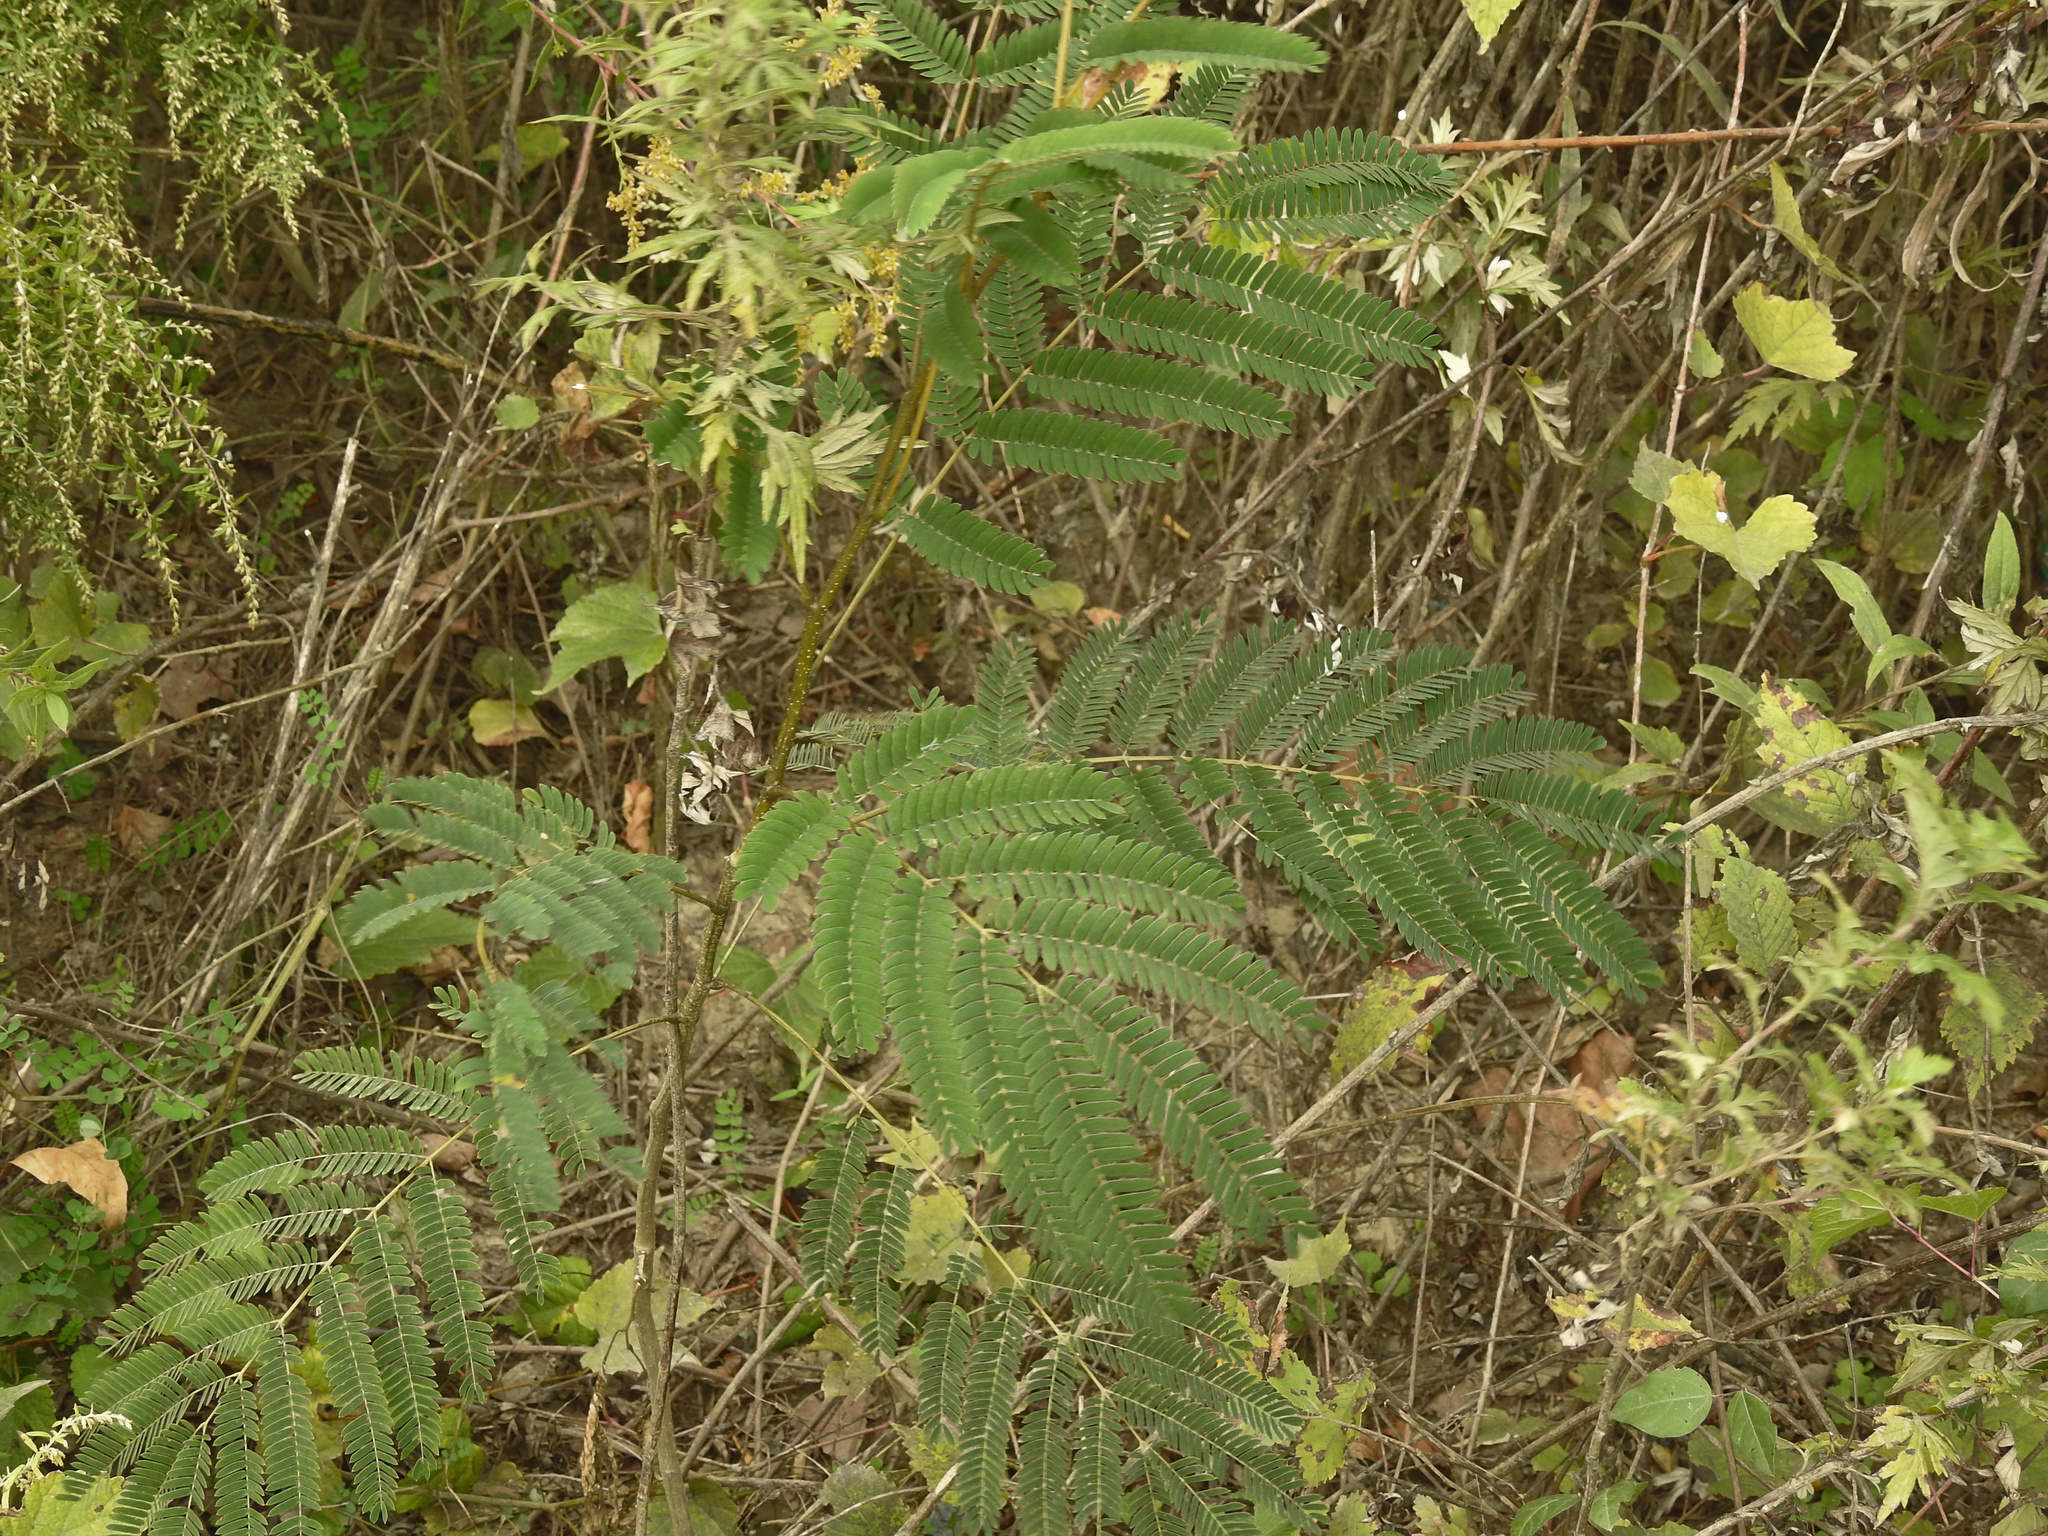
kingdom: Plantae
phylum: Tracheophyta
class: Magnoliopsida
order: Fabales
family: Fabaceae
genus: Albizia
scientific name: Albizia julibrissin
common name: Silktree
